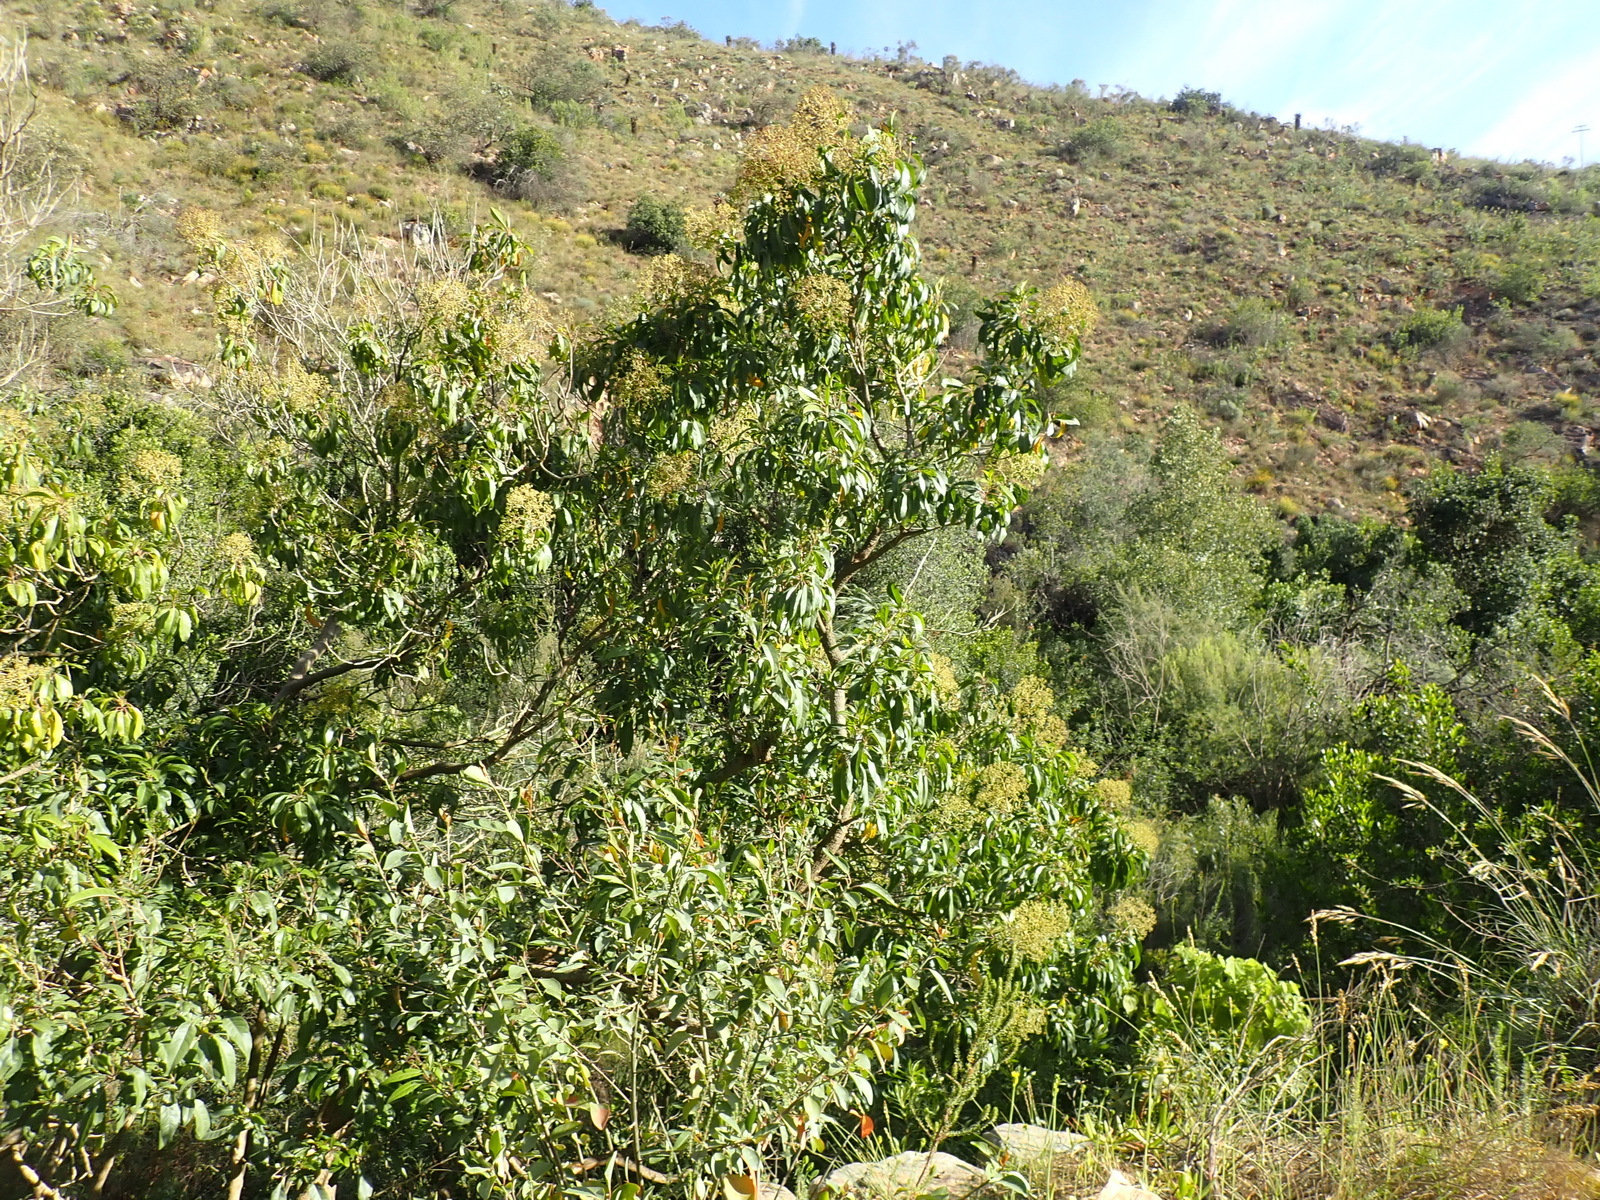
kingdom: Plantae
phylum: Tracheophyta
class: Magnoliopsida
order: Lamiales
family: Stilbaceae
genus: Nuxia
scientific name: Nuxia floribunda
